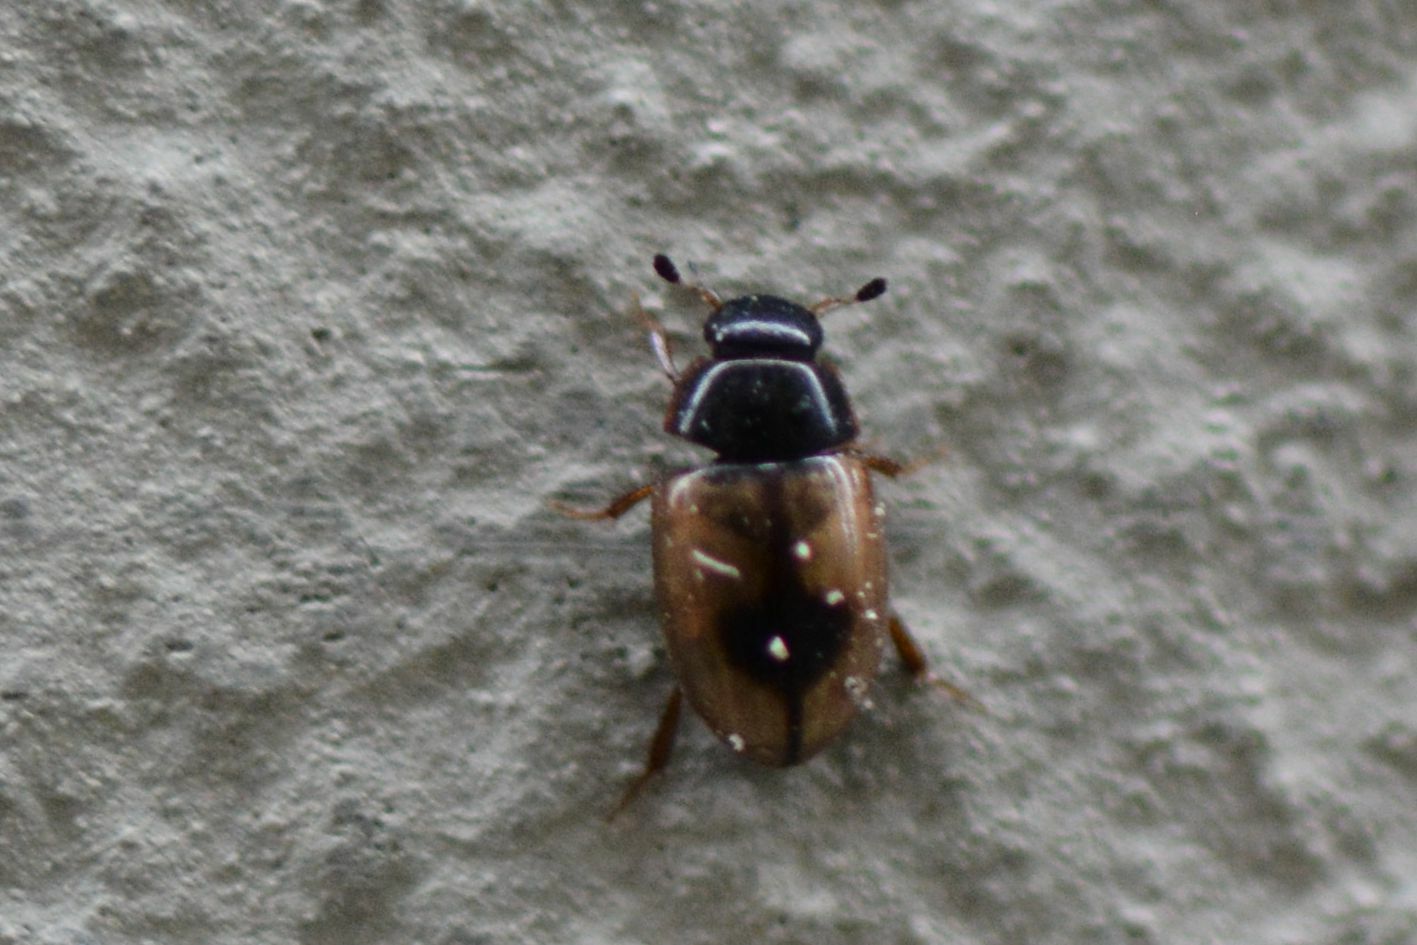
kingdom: Animalia
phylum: Arthropoda
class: Insecta
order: Coleoptera
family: Hydrophilidae
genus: Cercyon
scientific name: Cercyon unipunctatus
